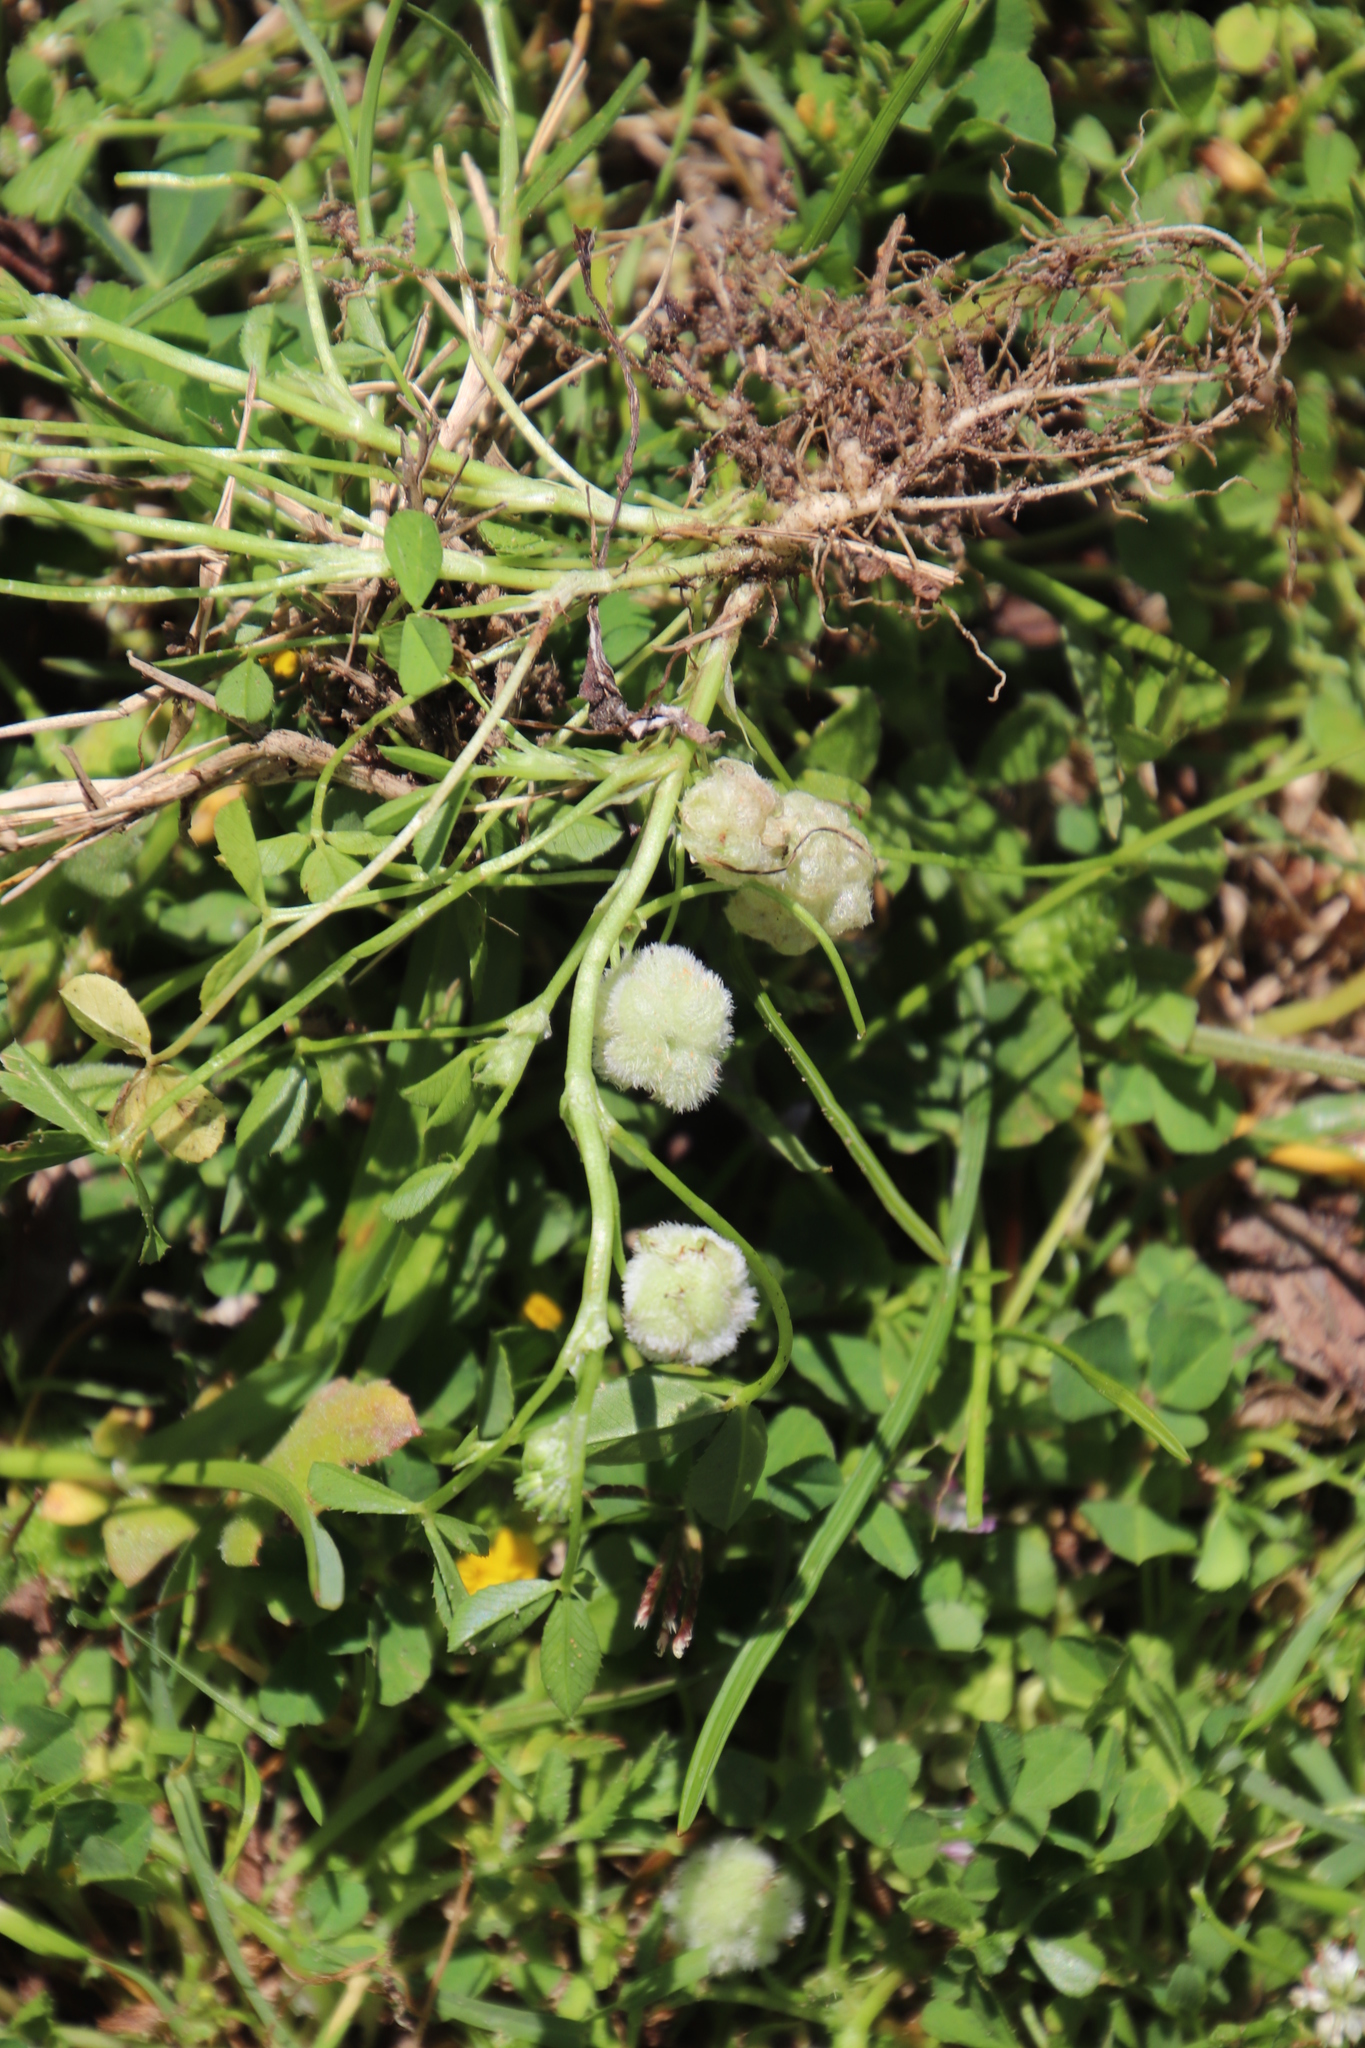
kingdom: Plantae
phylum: Tracheophyta
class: Magnoliopsida
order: Fabales
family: Fabaceae
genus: Medicago
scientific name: Medicago polymorpha
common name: Burclover
